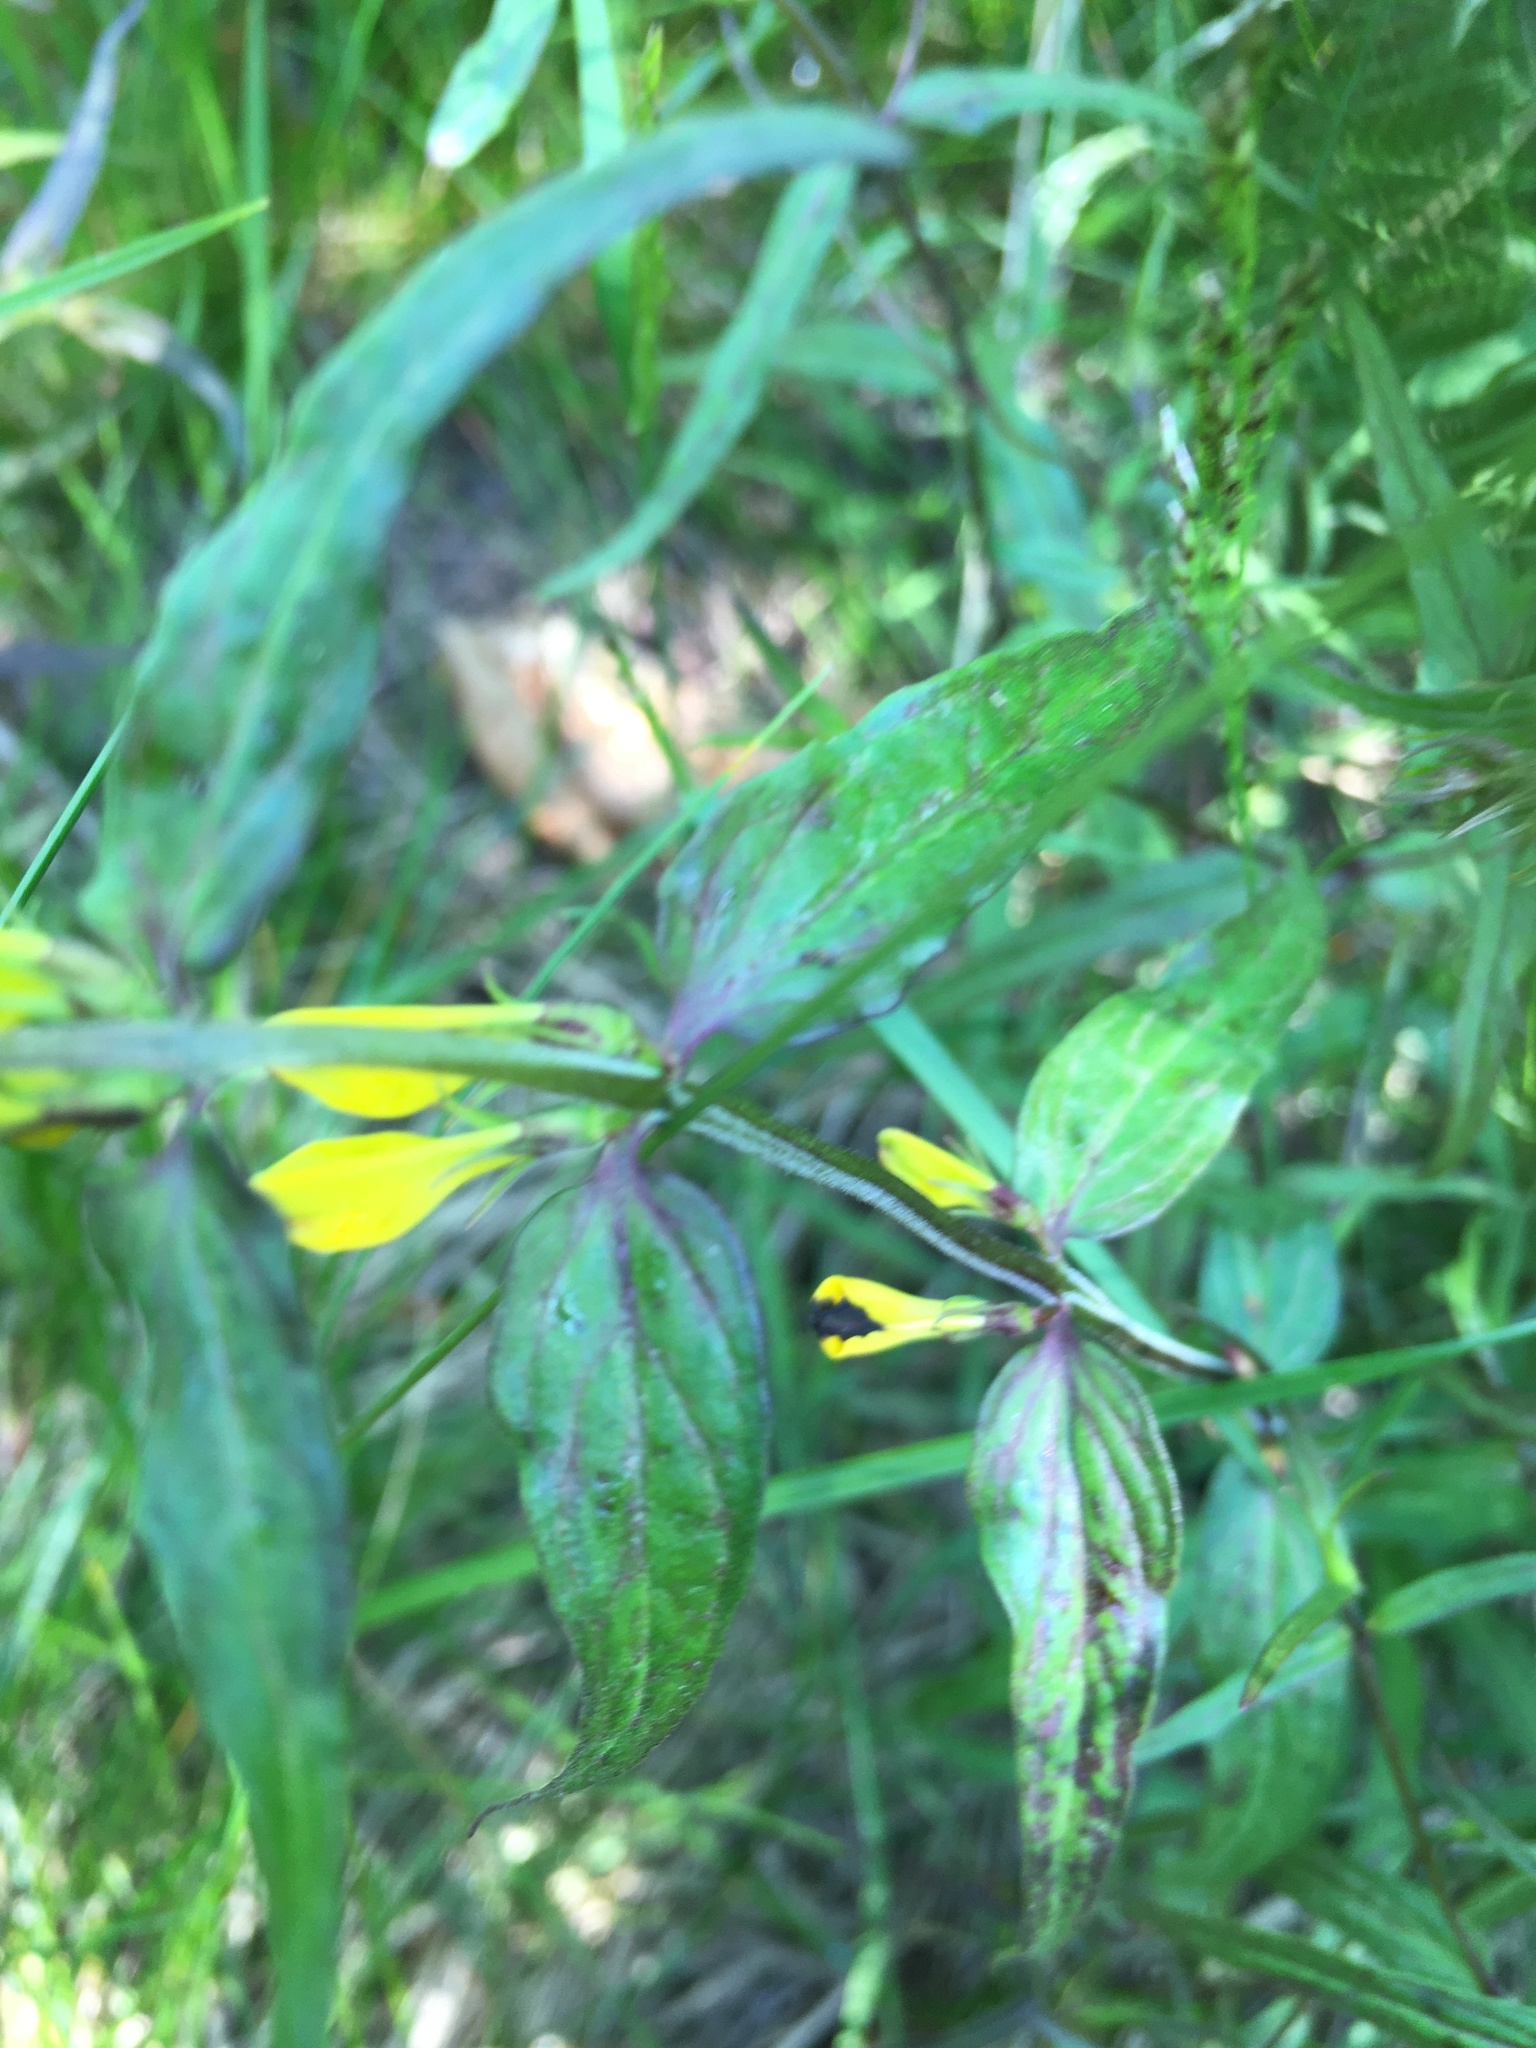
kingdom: Plantae
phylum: Tracheophyta
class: Magnoliopsida
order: Lamiales
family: Orobanchaceae
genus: Melampyrum
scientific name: Melampyrum sylvaticum
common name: Small cow-wheat
